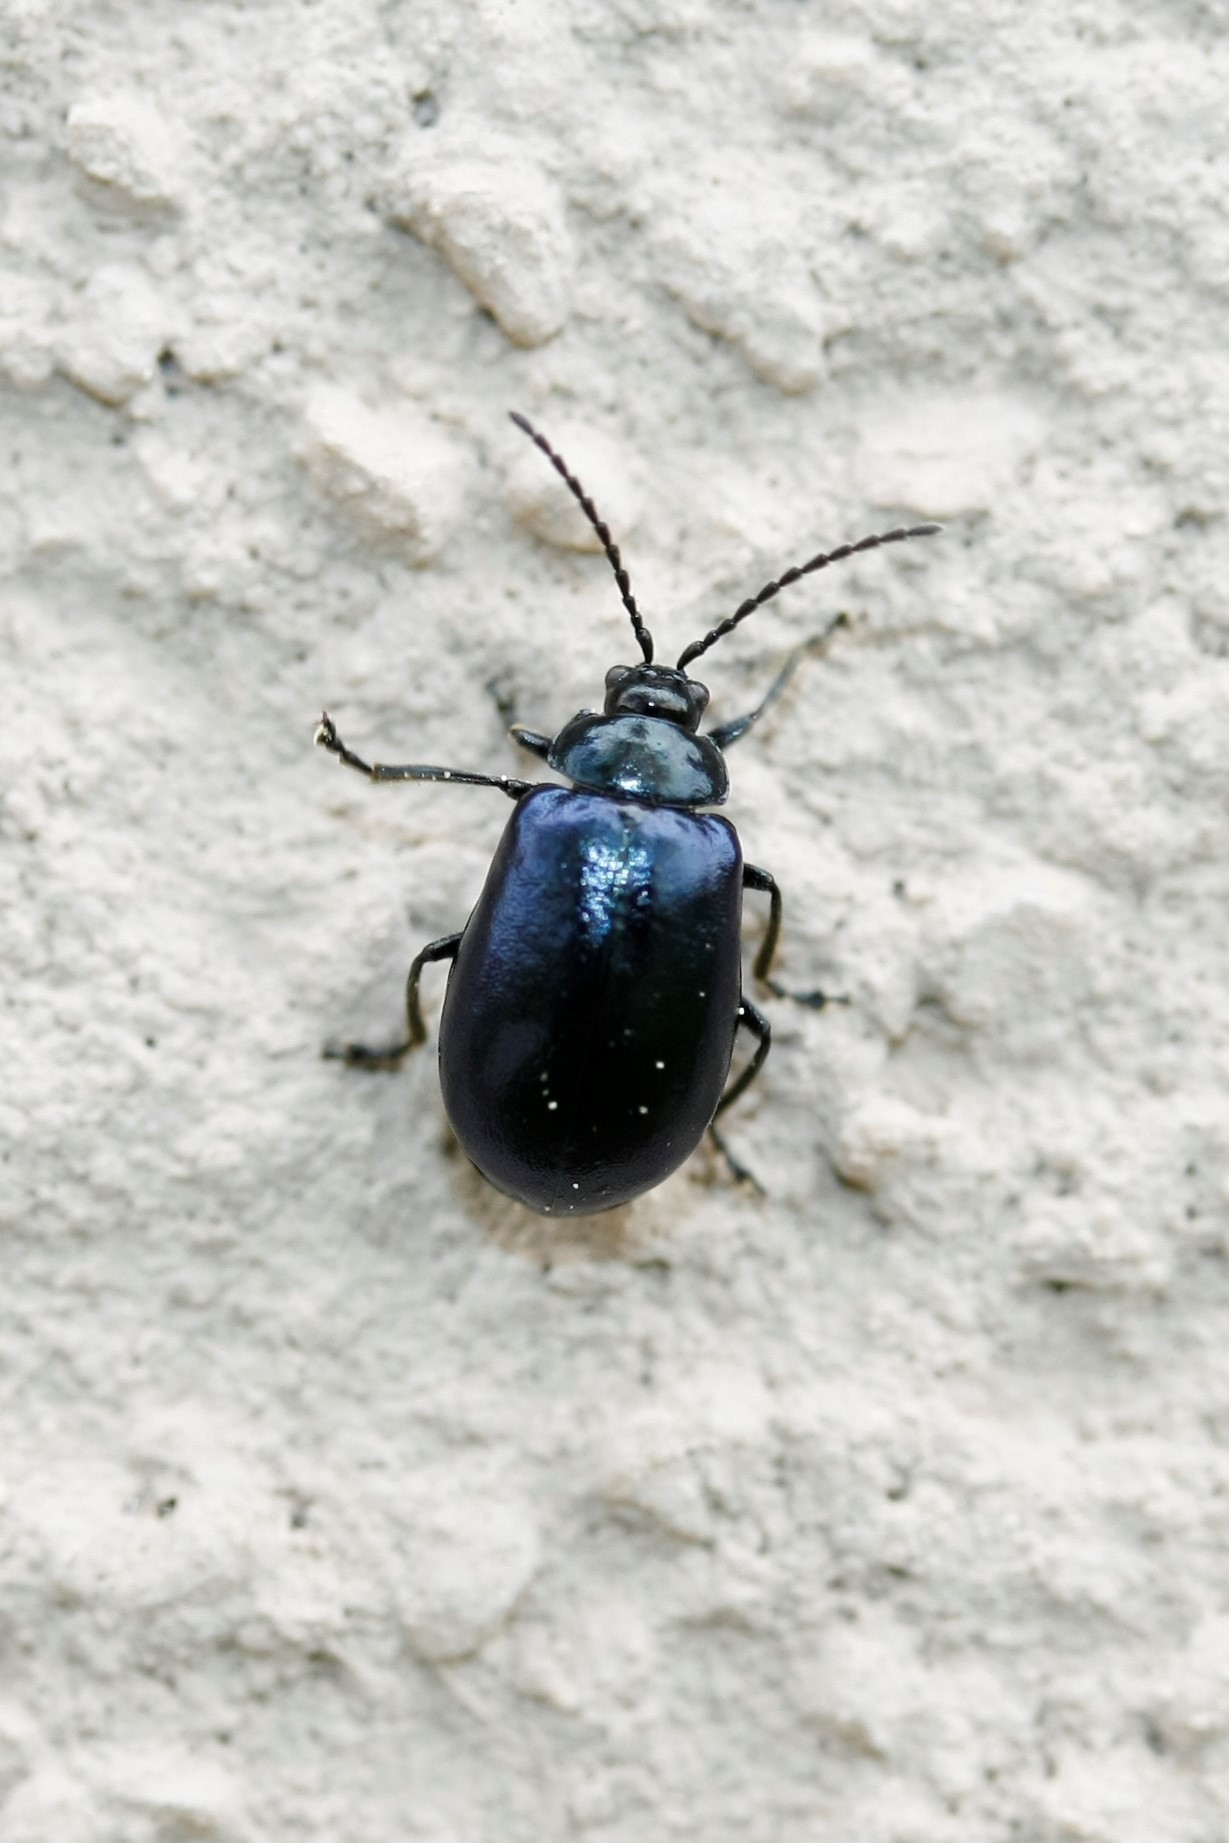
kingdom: Animalia
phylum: Arthropoda
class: Insecta
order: Coleoptera
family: Chrysomelidae
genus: Agelastica
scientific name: Agelastica alni
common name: Alder leaf beetle
